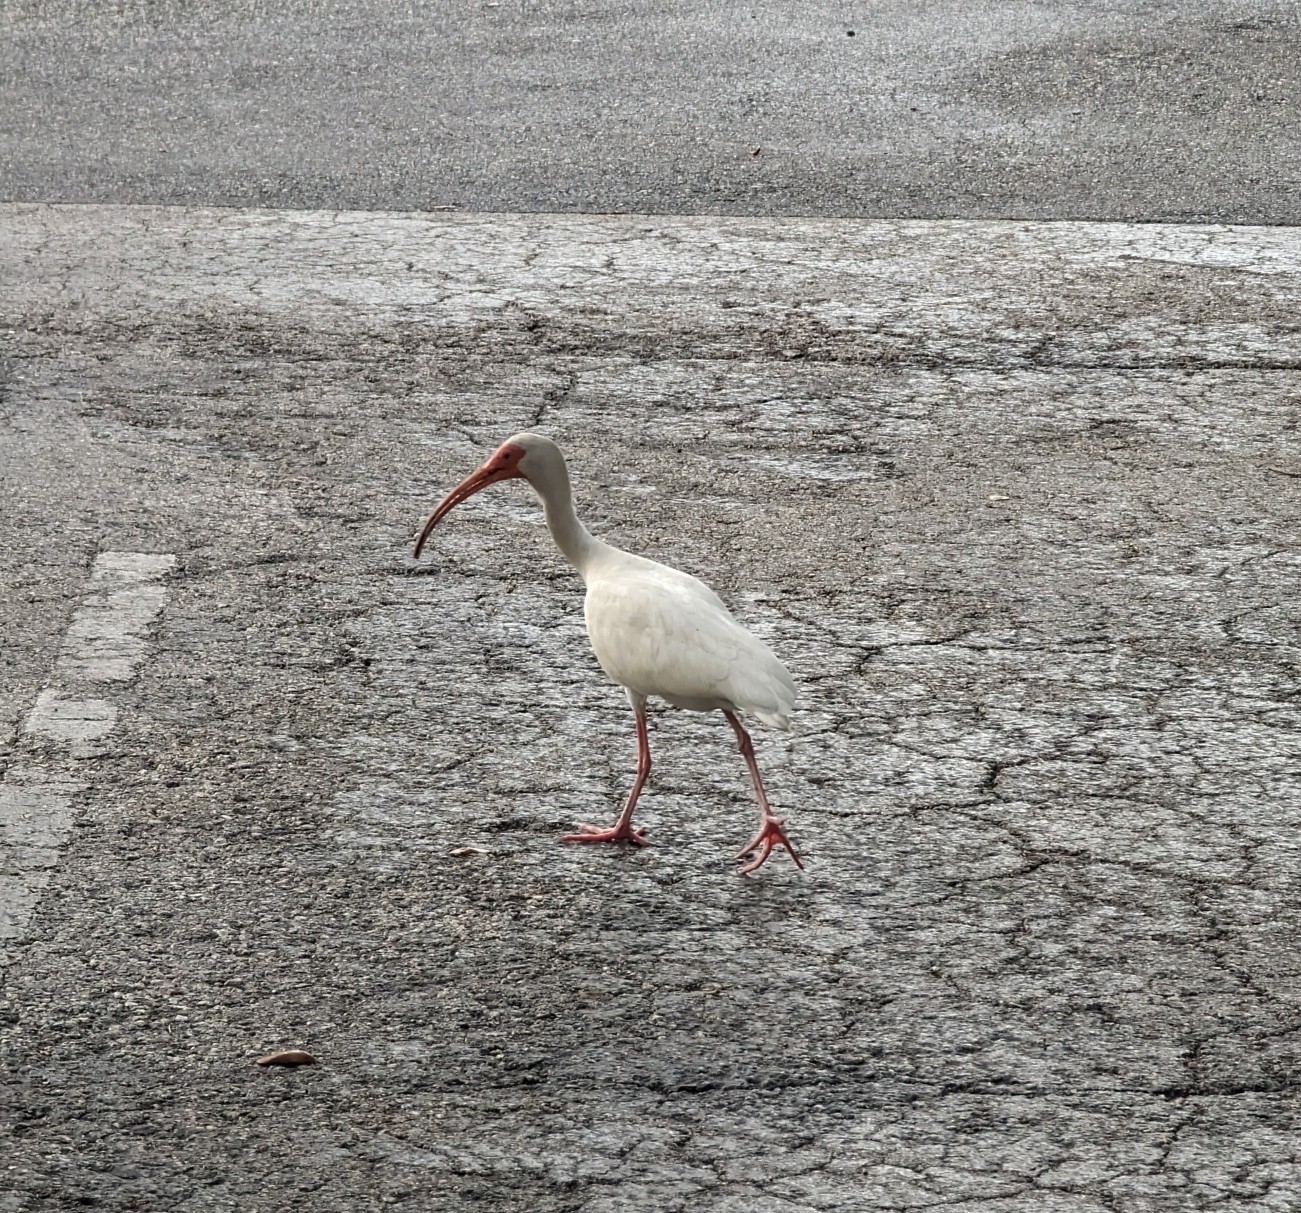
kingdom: Animalia
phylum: Chordata
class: Aves
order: Pelecaniformes
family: Threskiornithidae
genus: Eudocimus
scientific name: Eudocimus albus
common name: White ibis
